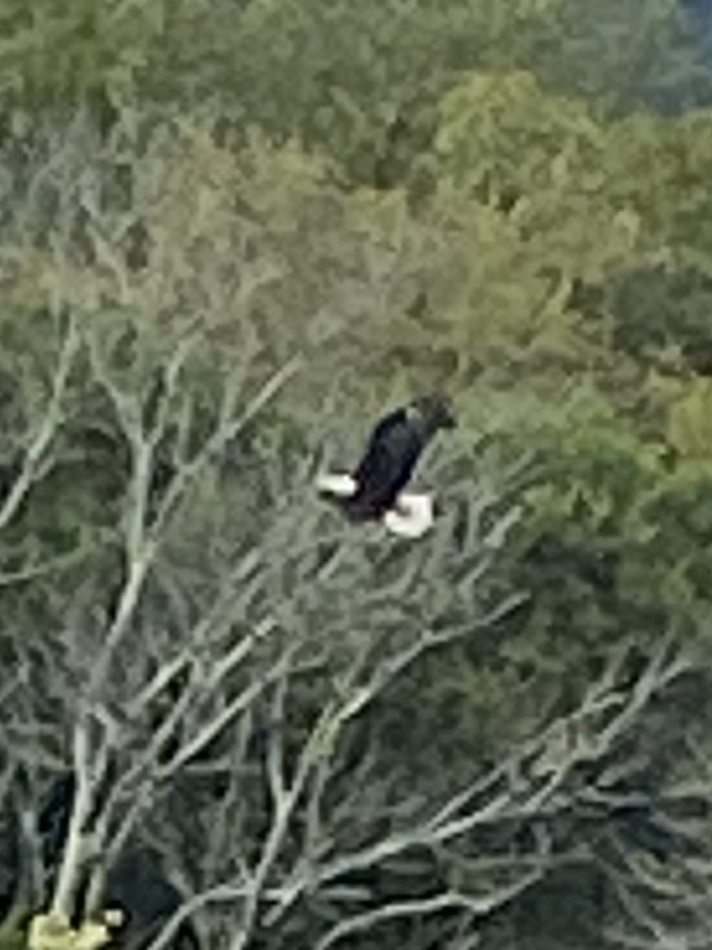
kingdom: Animalia
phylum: Chordata
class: Aves
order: Accipitriformes
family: Accipitridae
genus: Haliaeetus
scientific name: Haliaeetus leucocephalus
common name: Bald eagle
